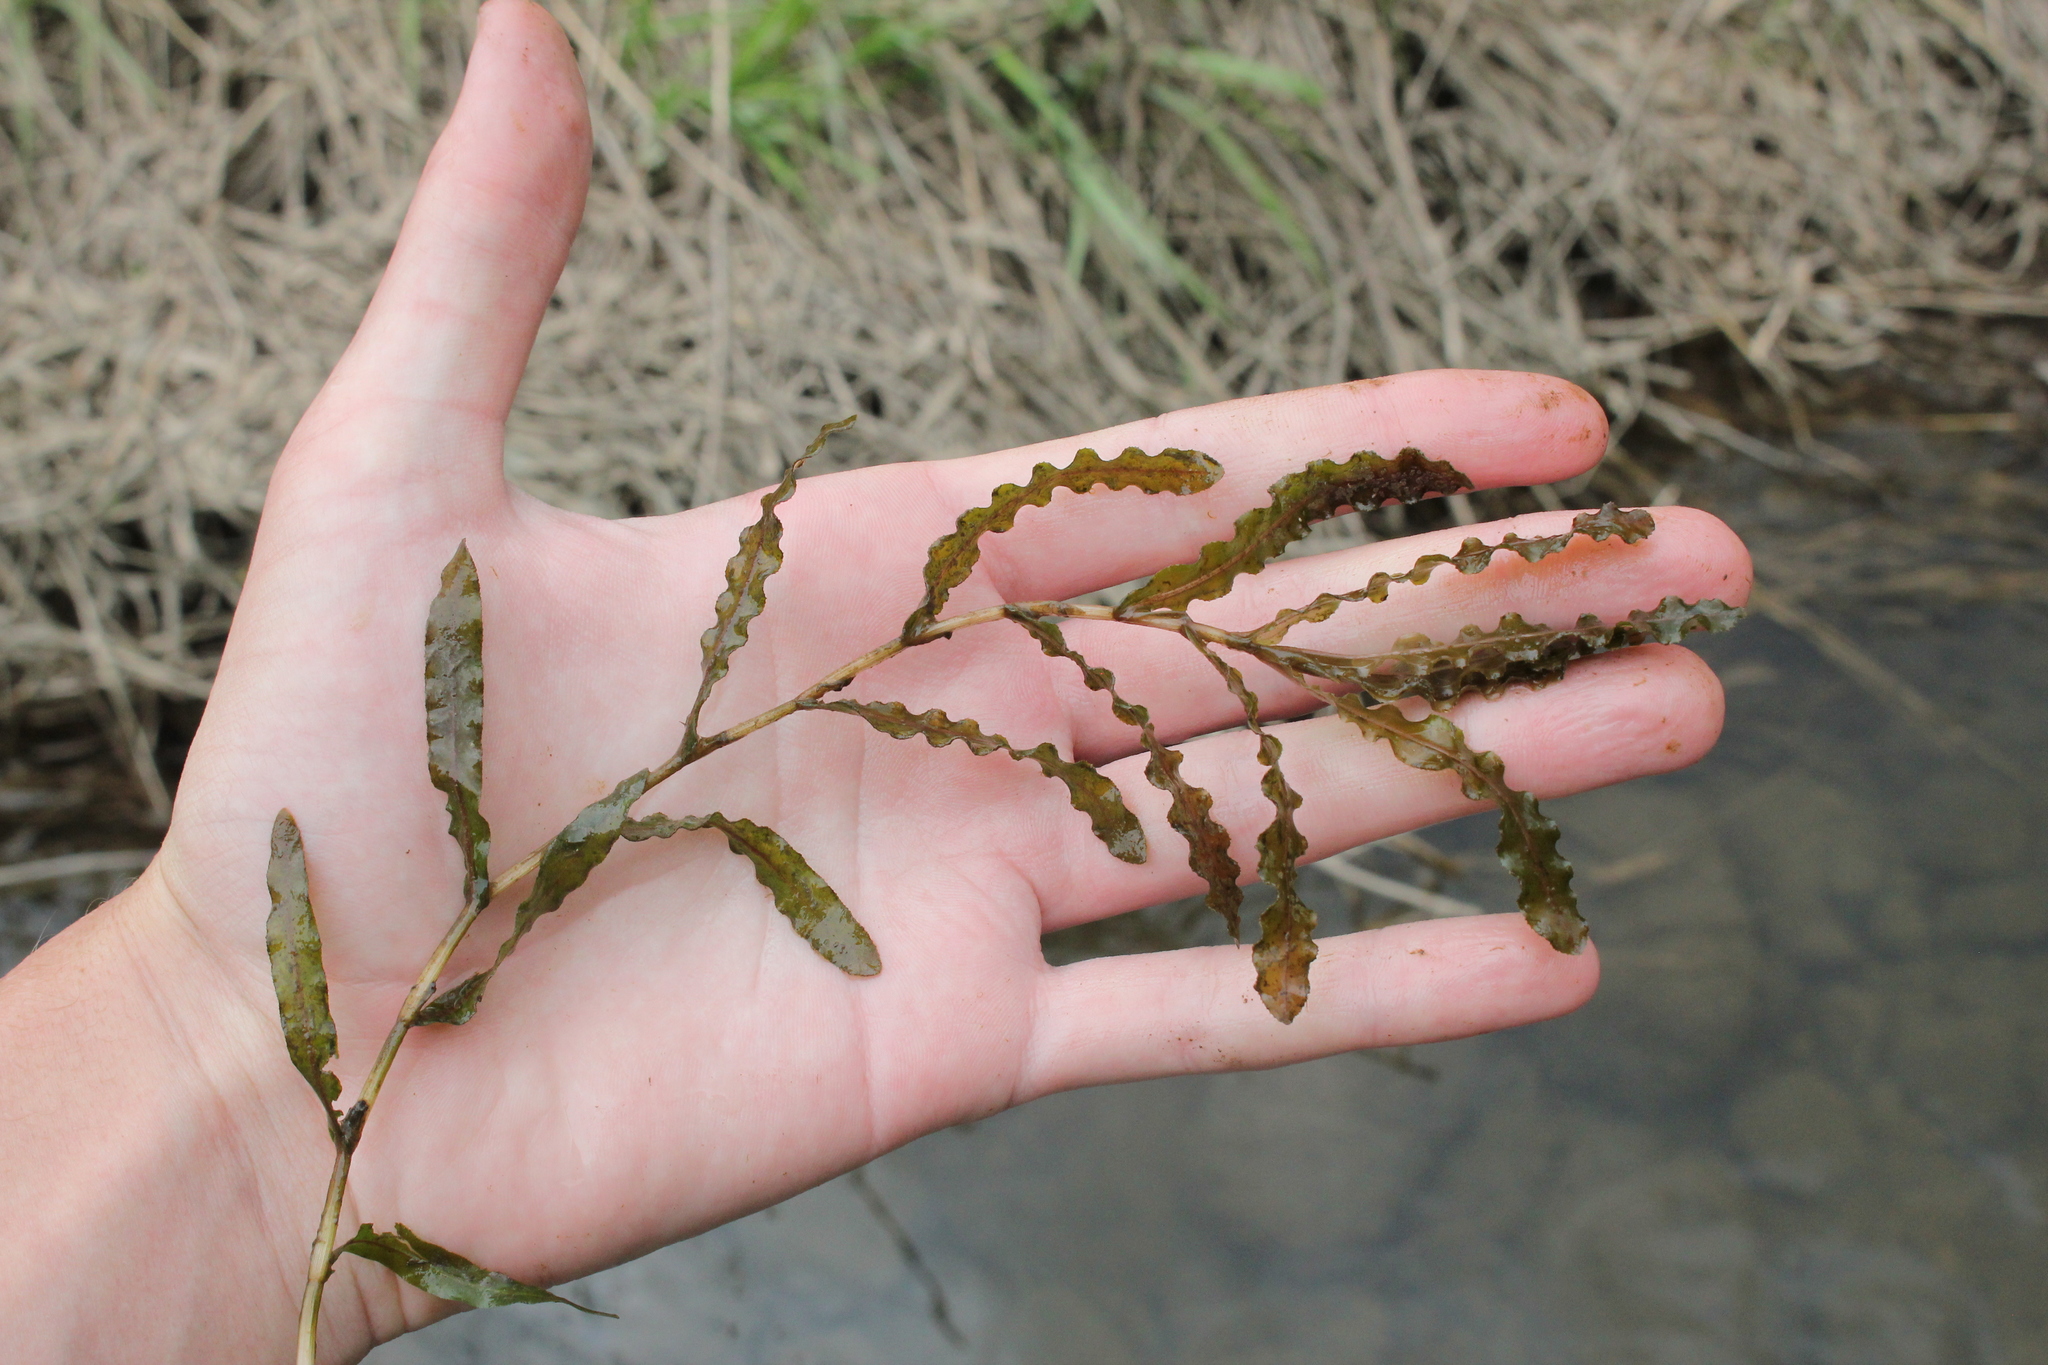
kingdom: Plantae
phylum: Tracheophyta
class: Liliopsida
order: Alismatales
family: Potamogetonaceae
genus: Potamogeton
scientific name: Potamogeton crispus
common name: Curled pondweed
